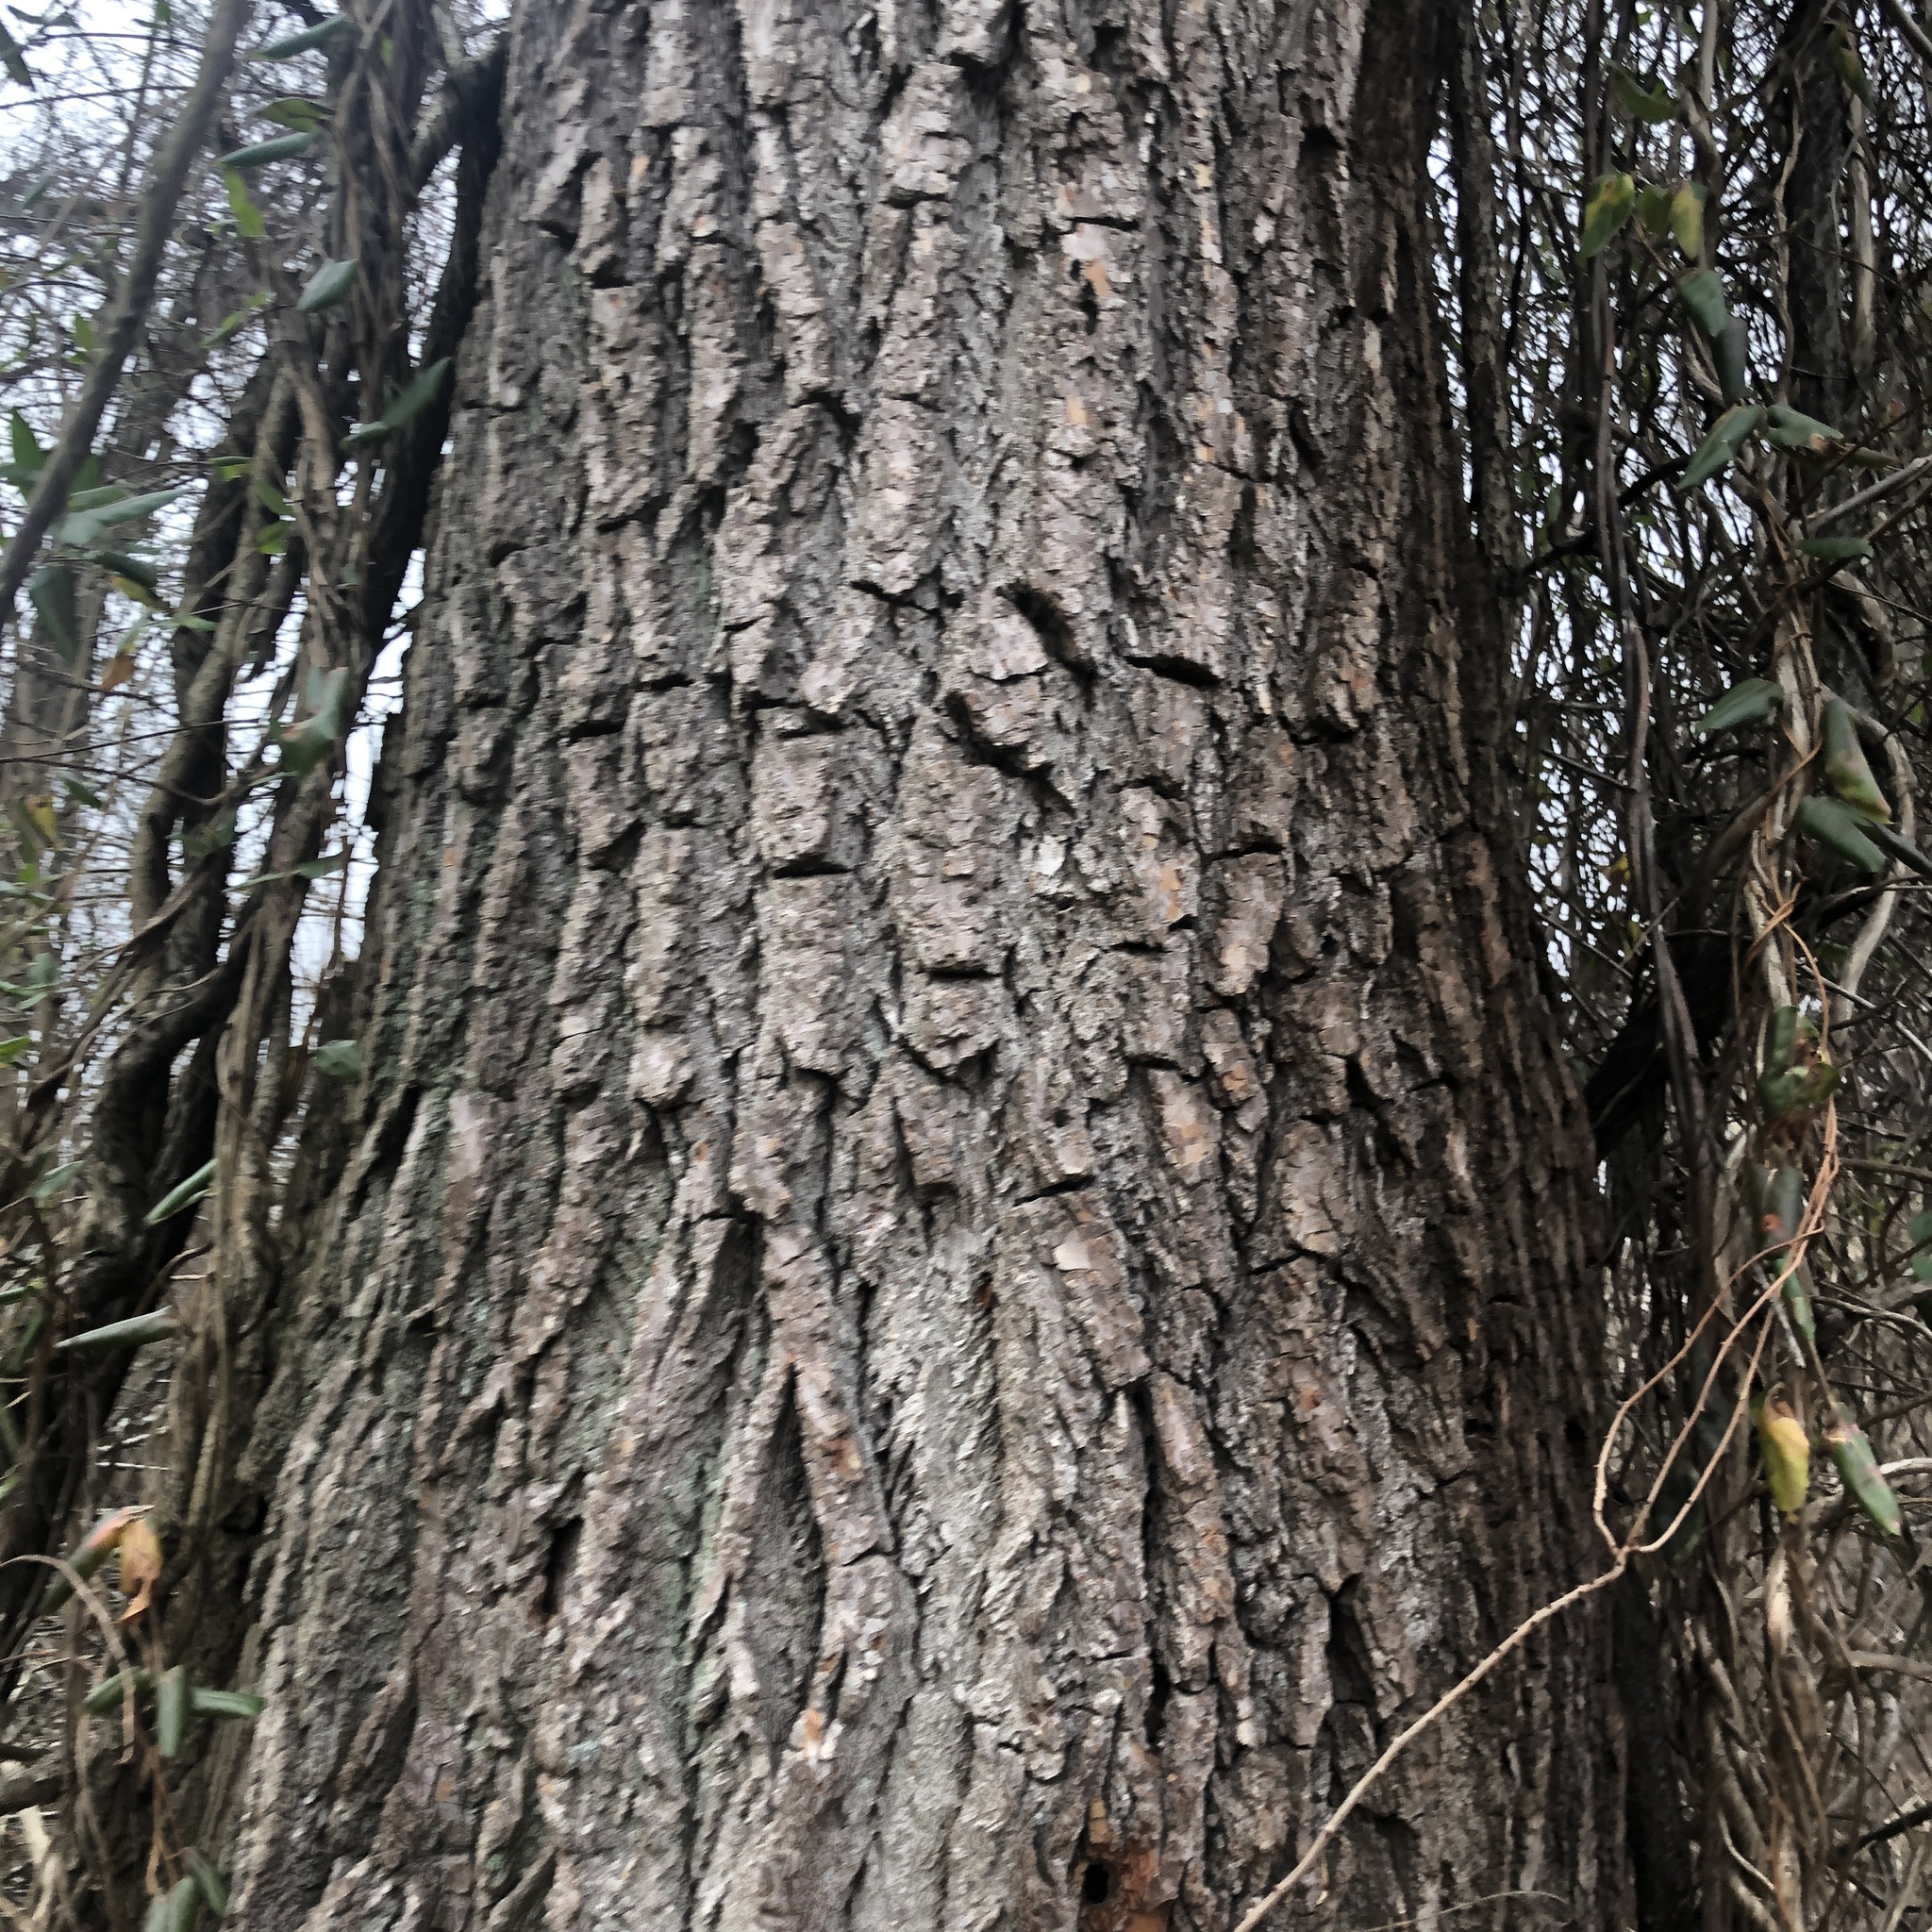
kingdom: Plantae
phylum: Tracheophyta
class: Magnoliopsida
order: Laurales
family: Lauraceae
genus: Sassafras
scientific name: Sassafras albidum
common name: Sassafras
